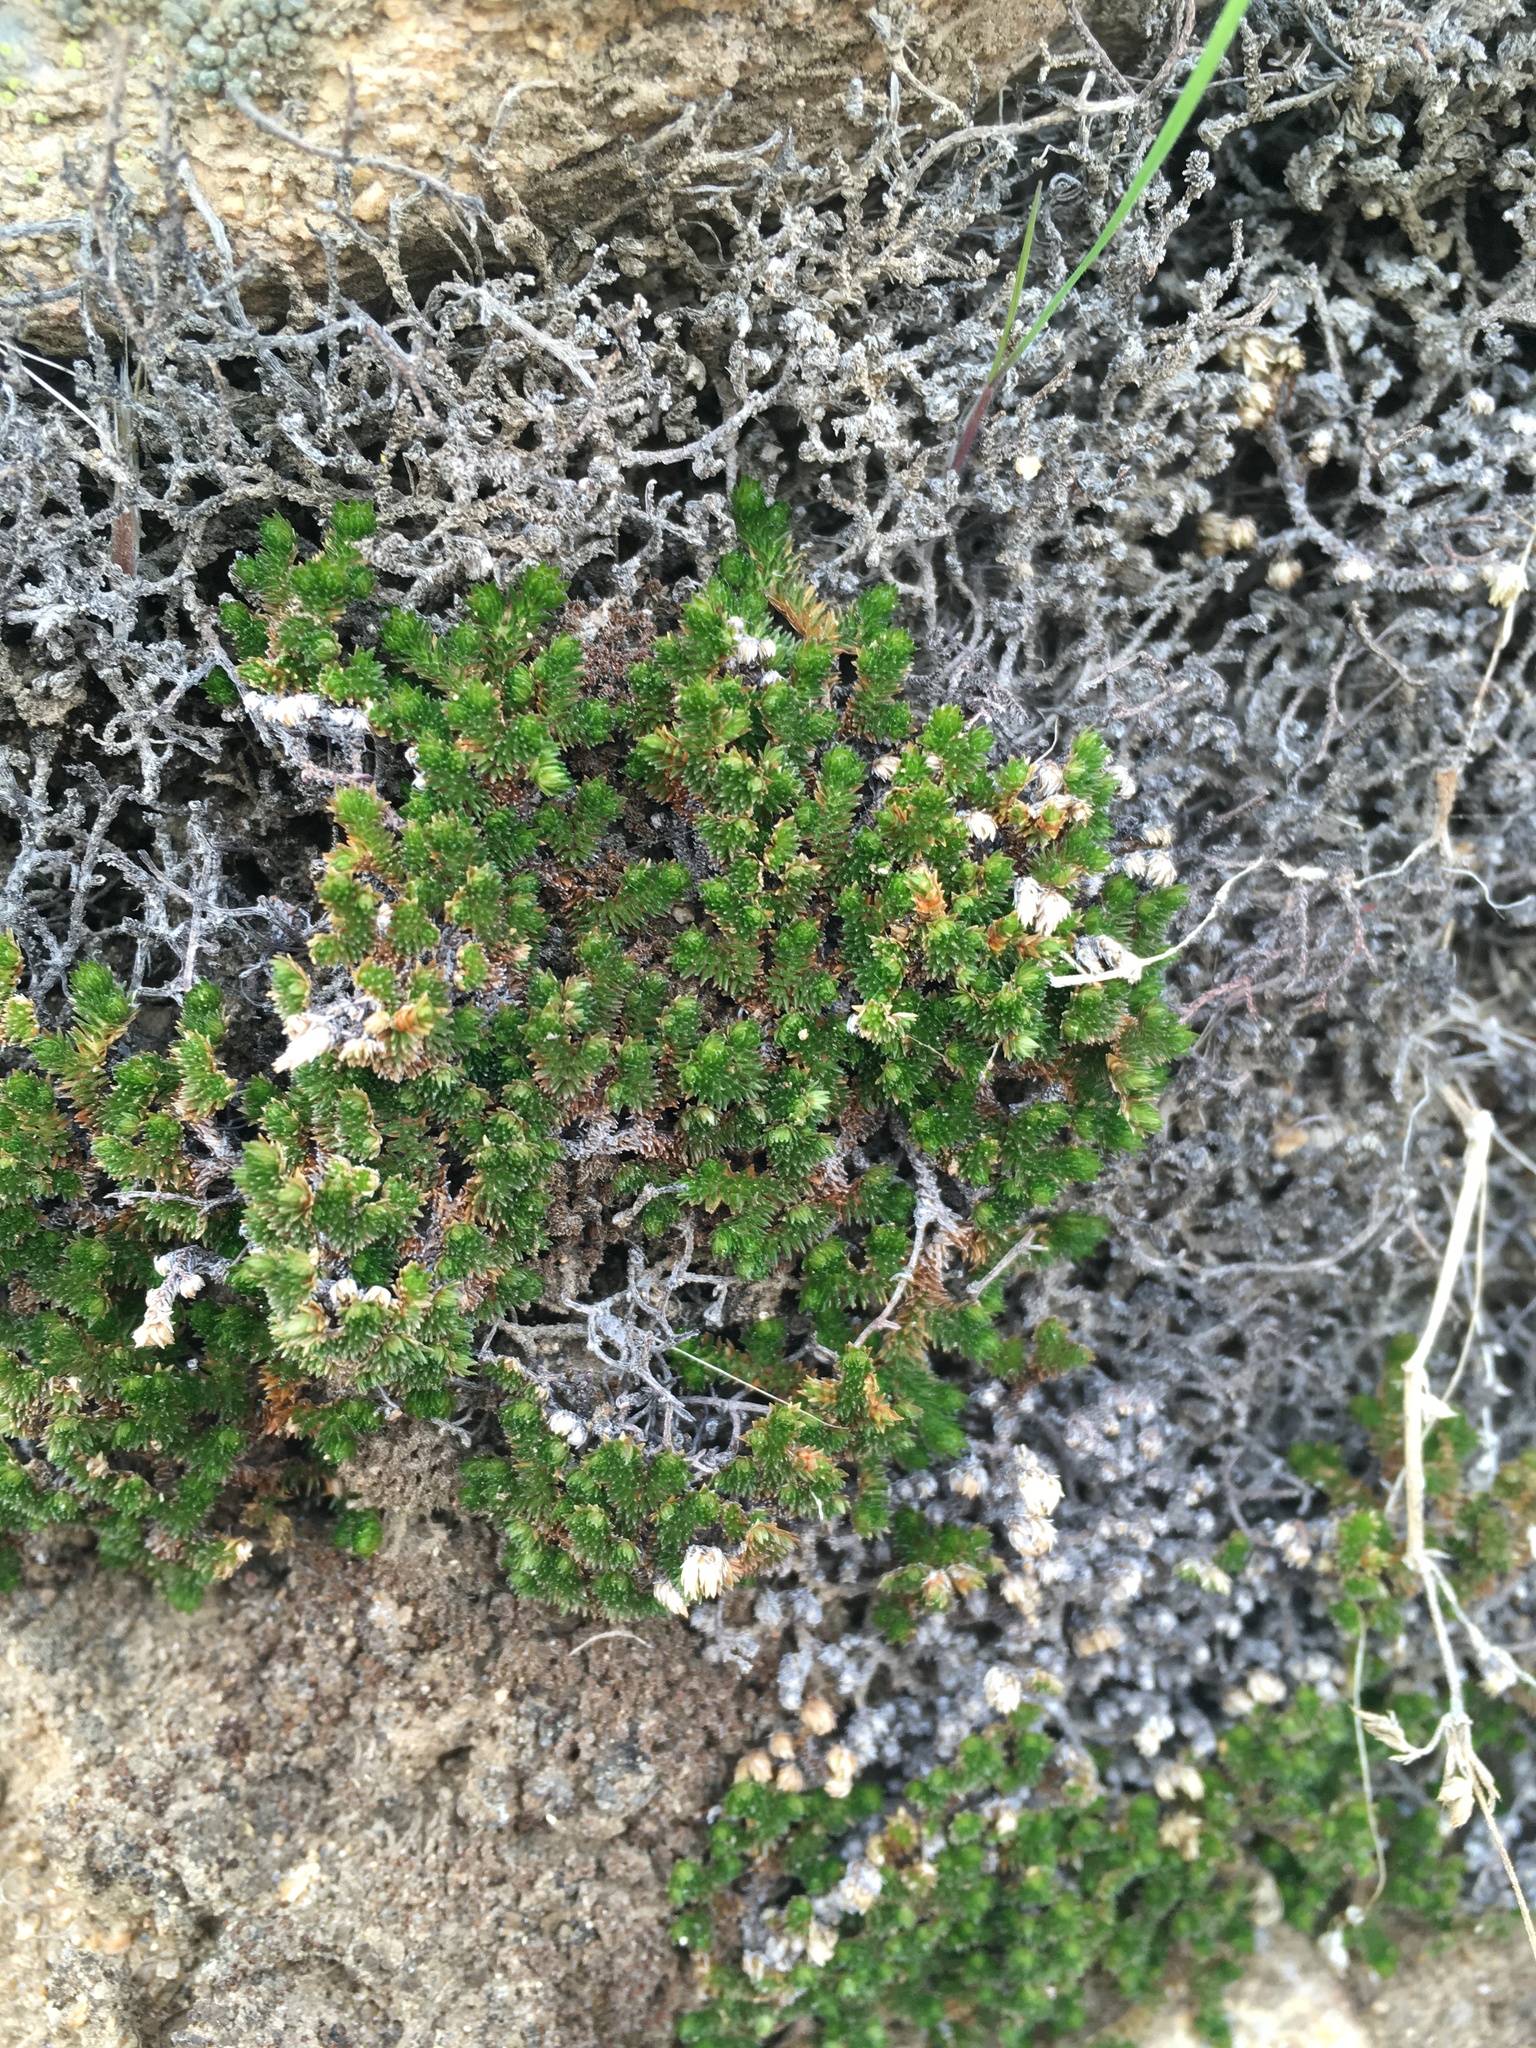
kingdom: Plantae
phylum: Tracheophyta
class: Lycopodiopsida
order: Selaginellales
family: Selaginellaceae
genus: Selaginella
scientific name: Selaginella eremophila
